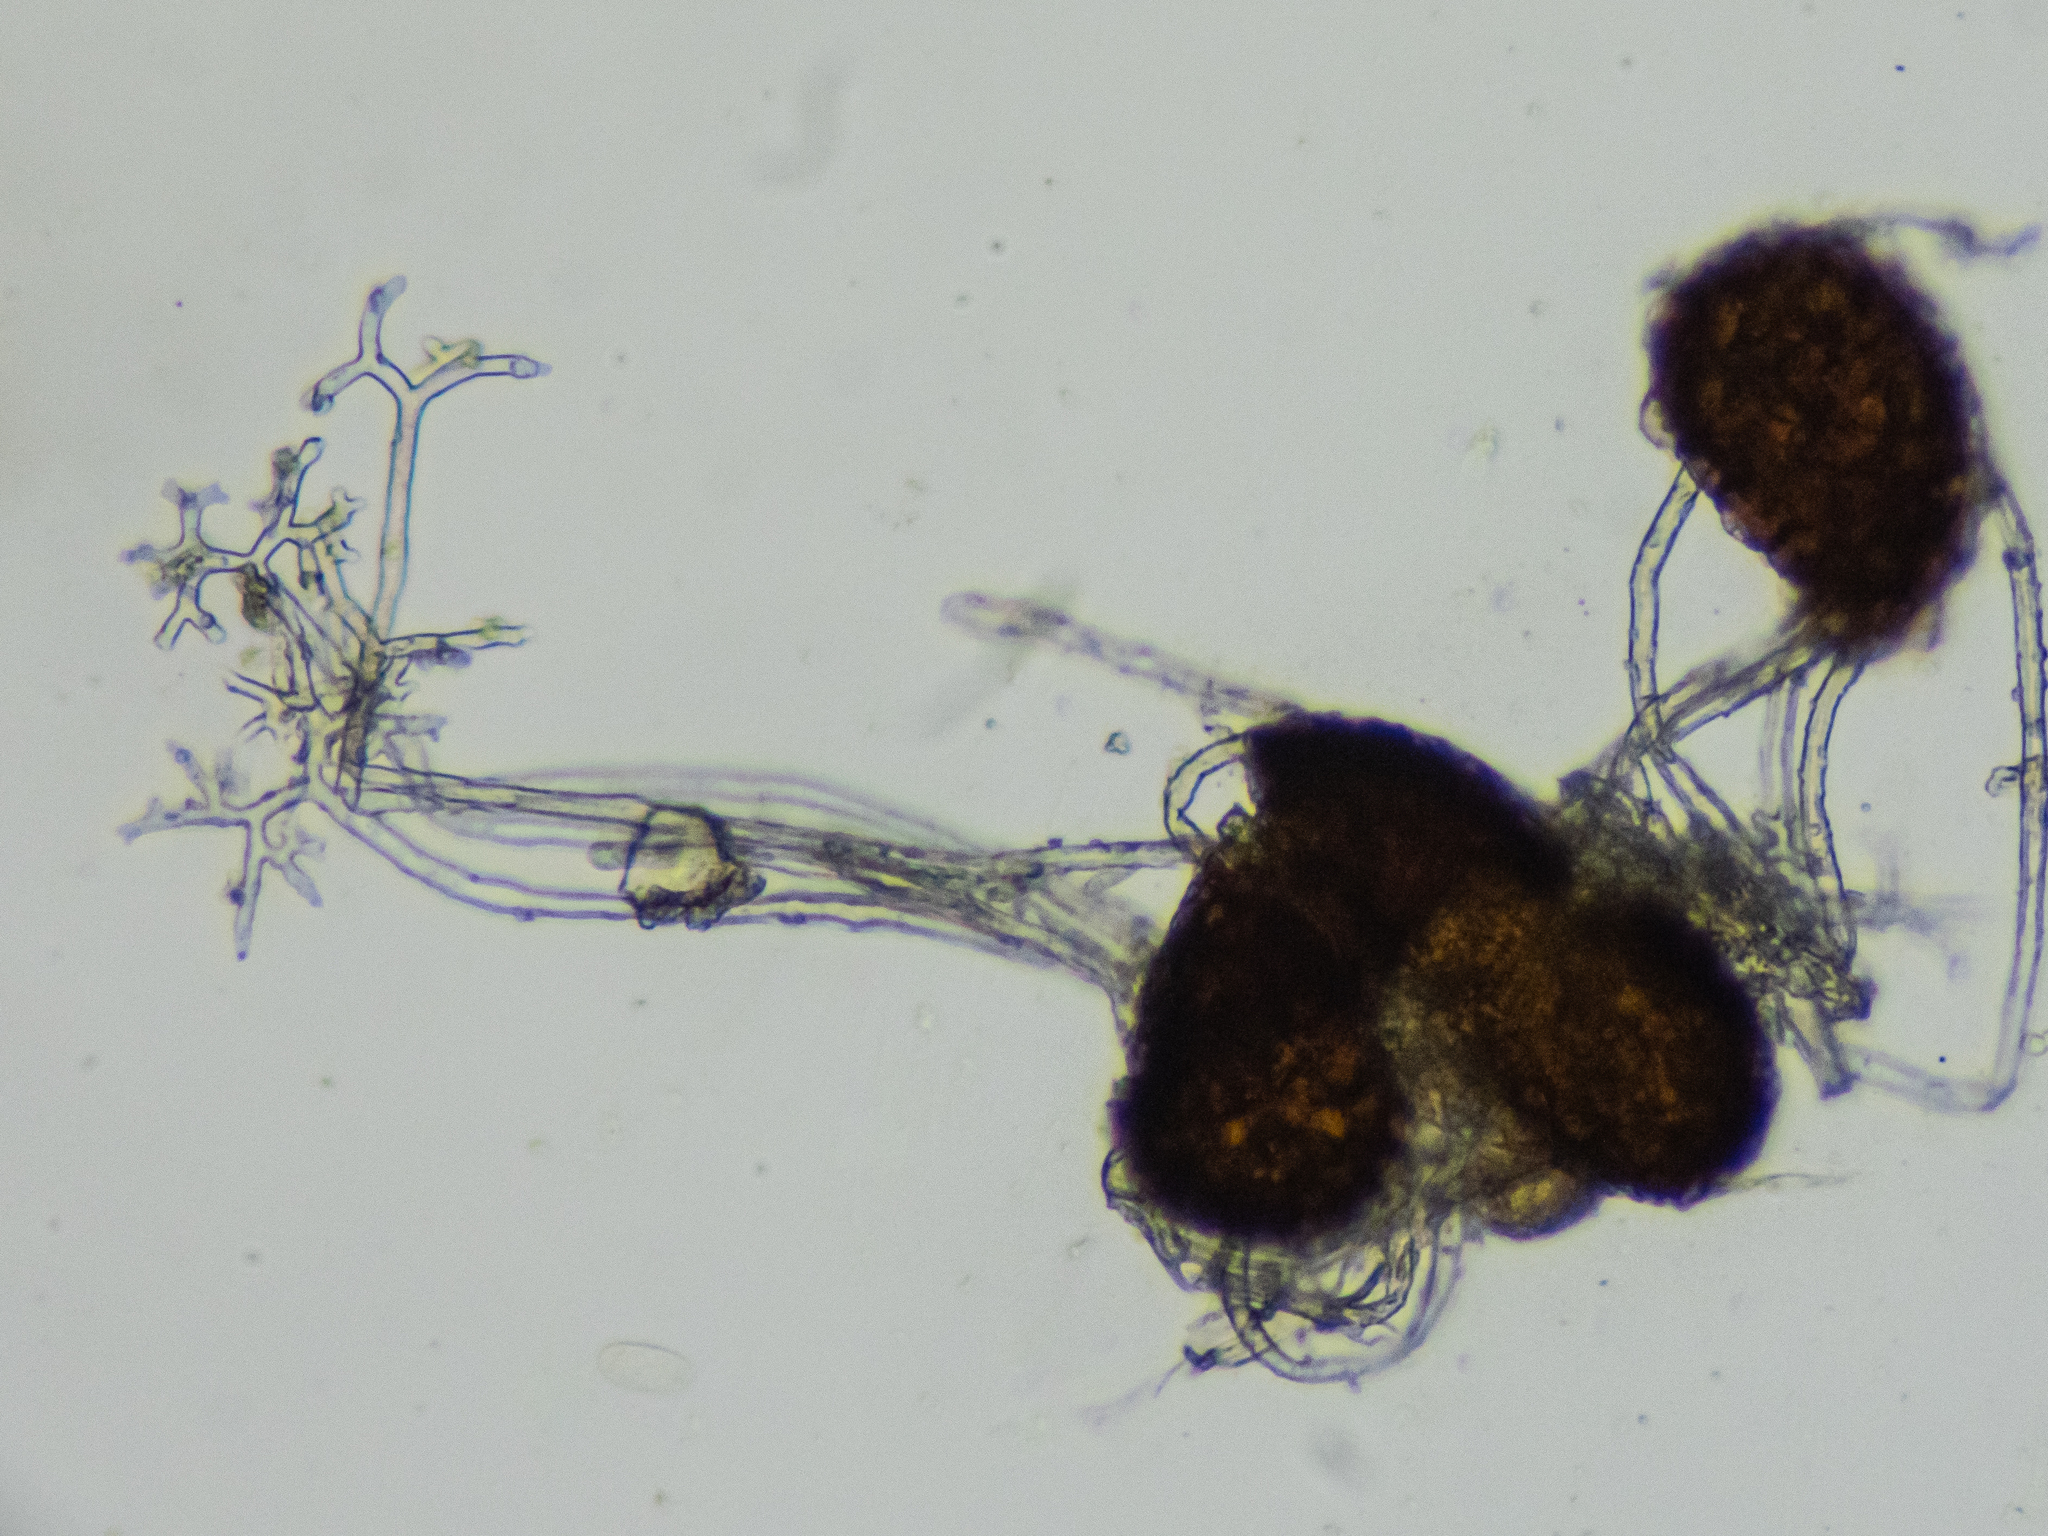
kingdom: Fungi
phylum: Ascomycota
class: Leotiomycetes
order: Helotiales
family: Erysiphaceae
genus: Erysiphe
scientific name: Erysiphe euonymi
